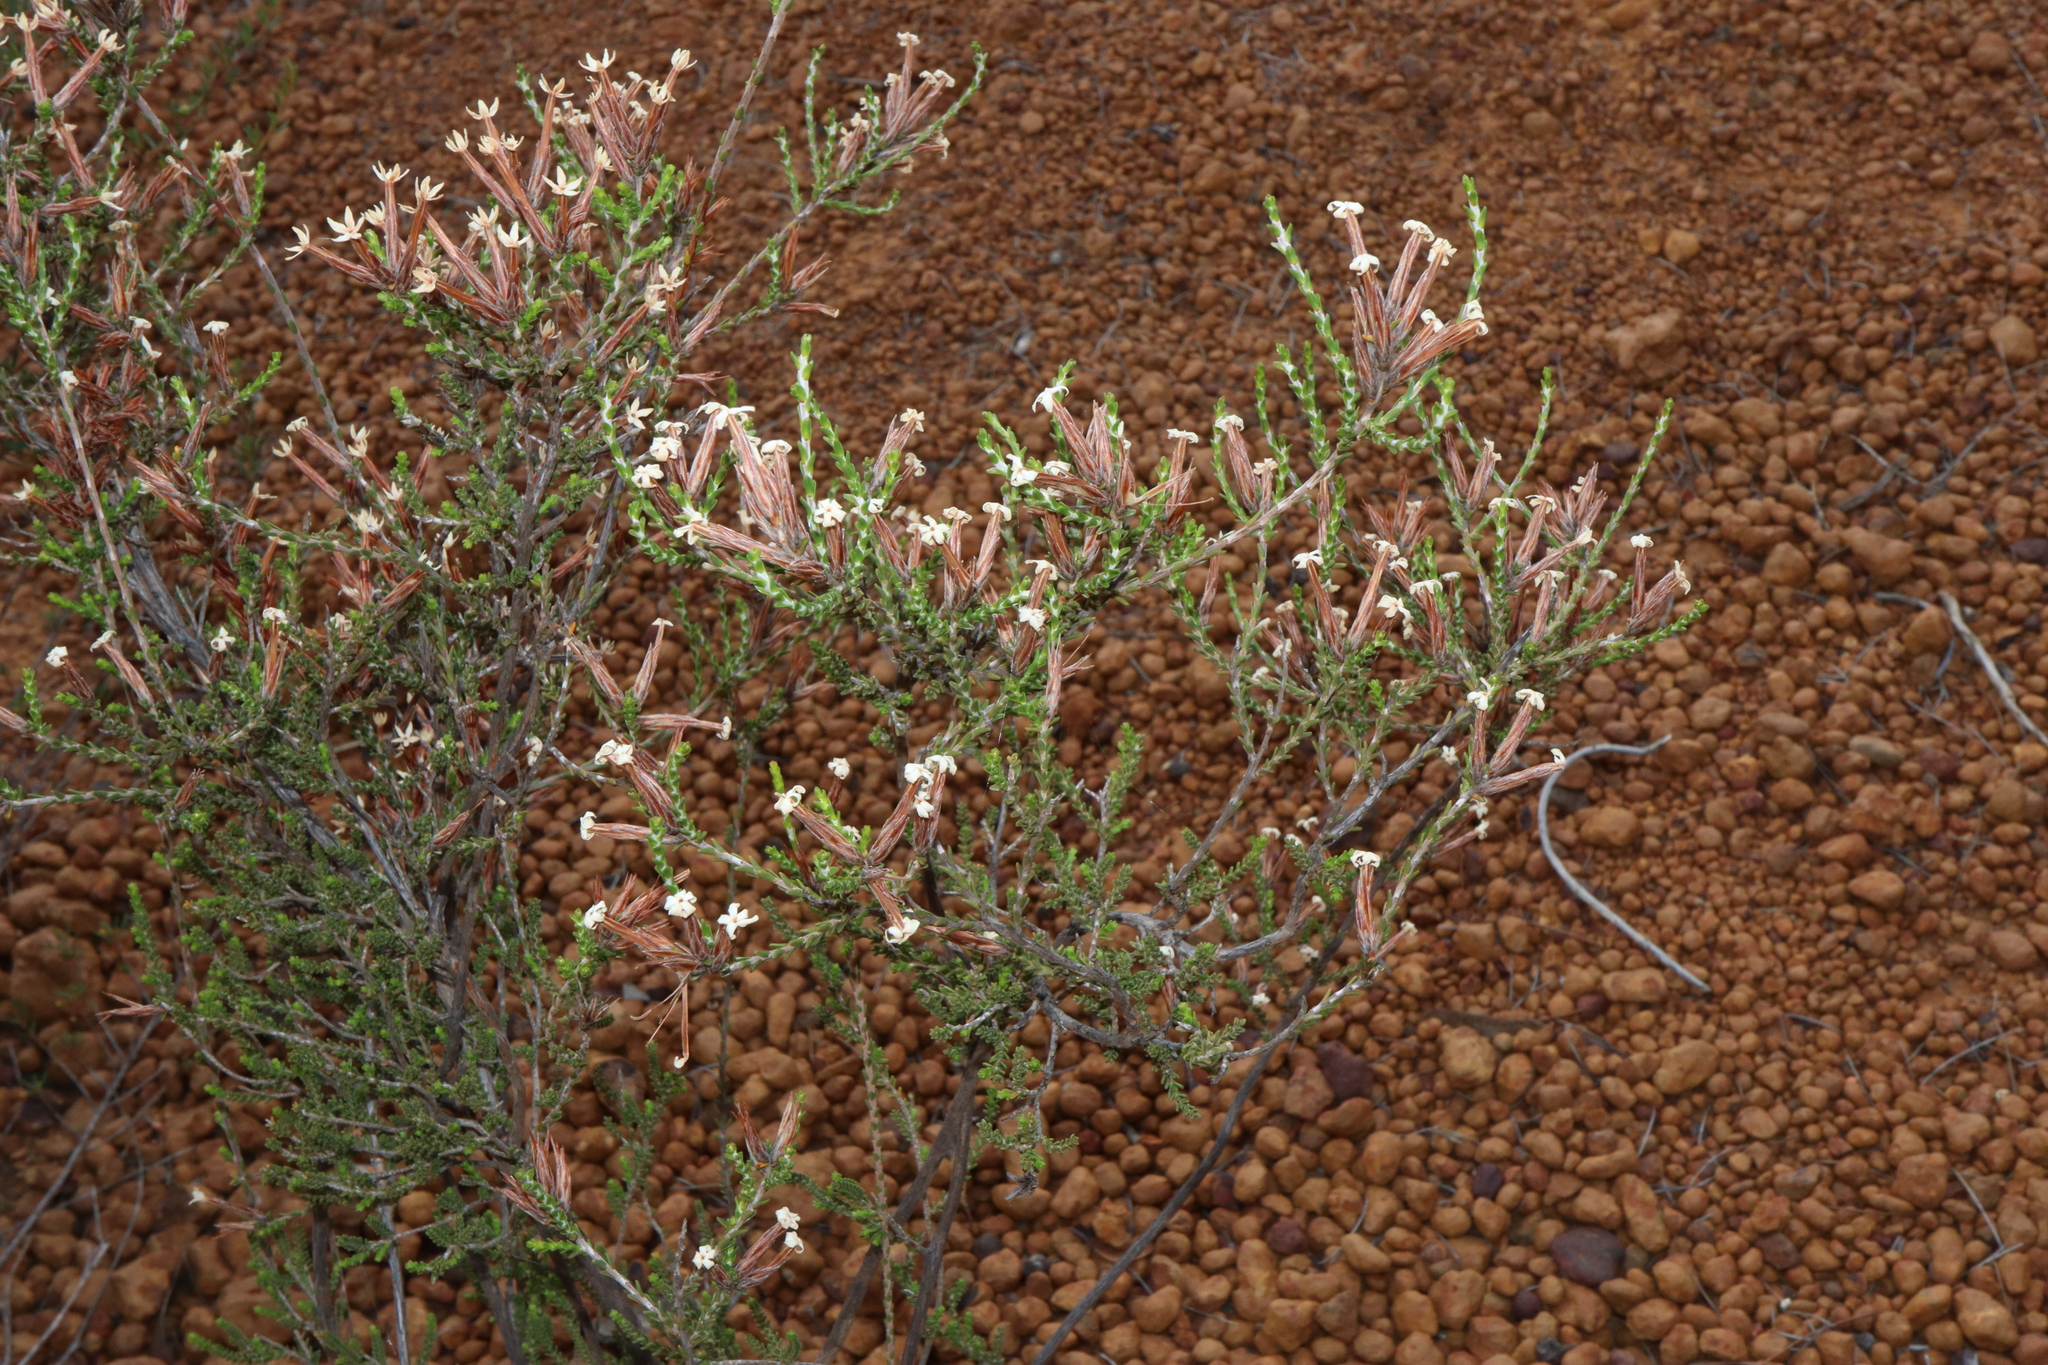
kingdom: Plantae
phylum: Tracheophyta
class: Magnoliopsida
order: Ericales
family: Ericaceae
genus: Lysinema
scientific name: Lysinema pentapetalum
